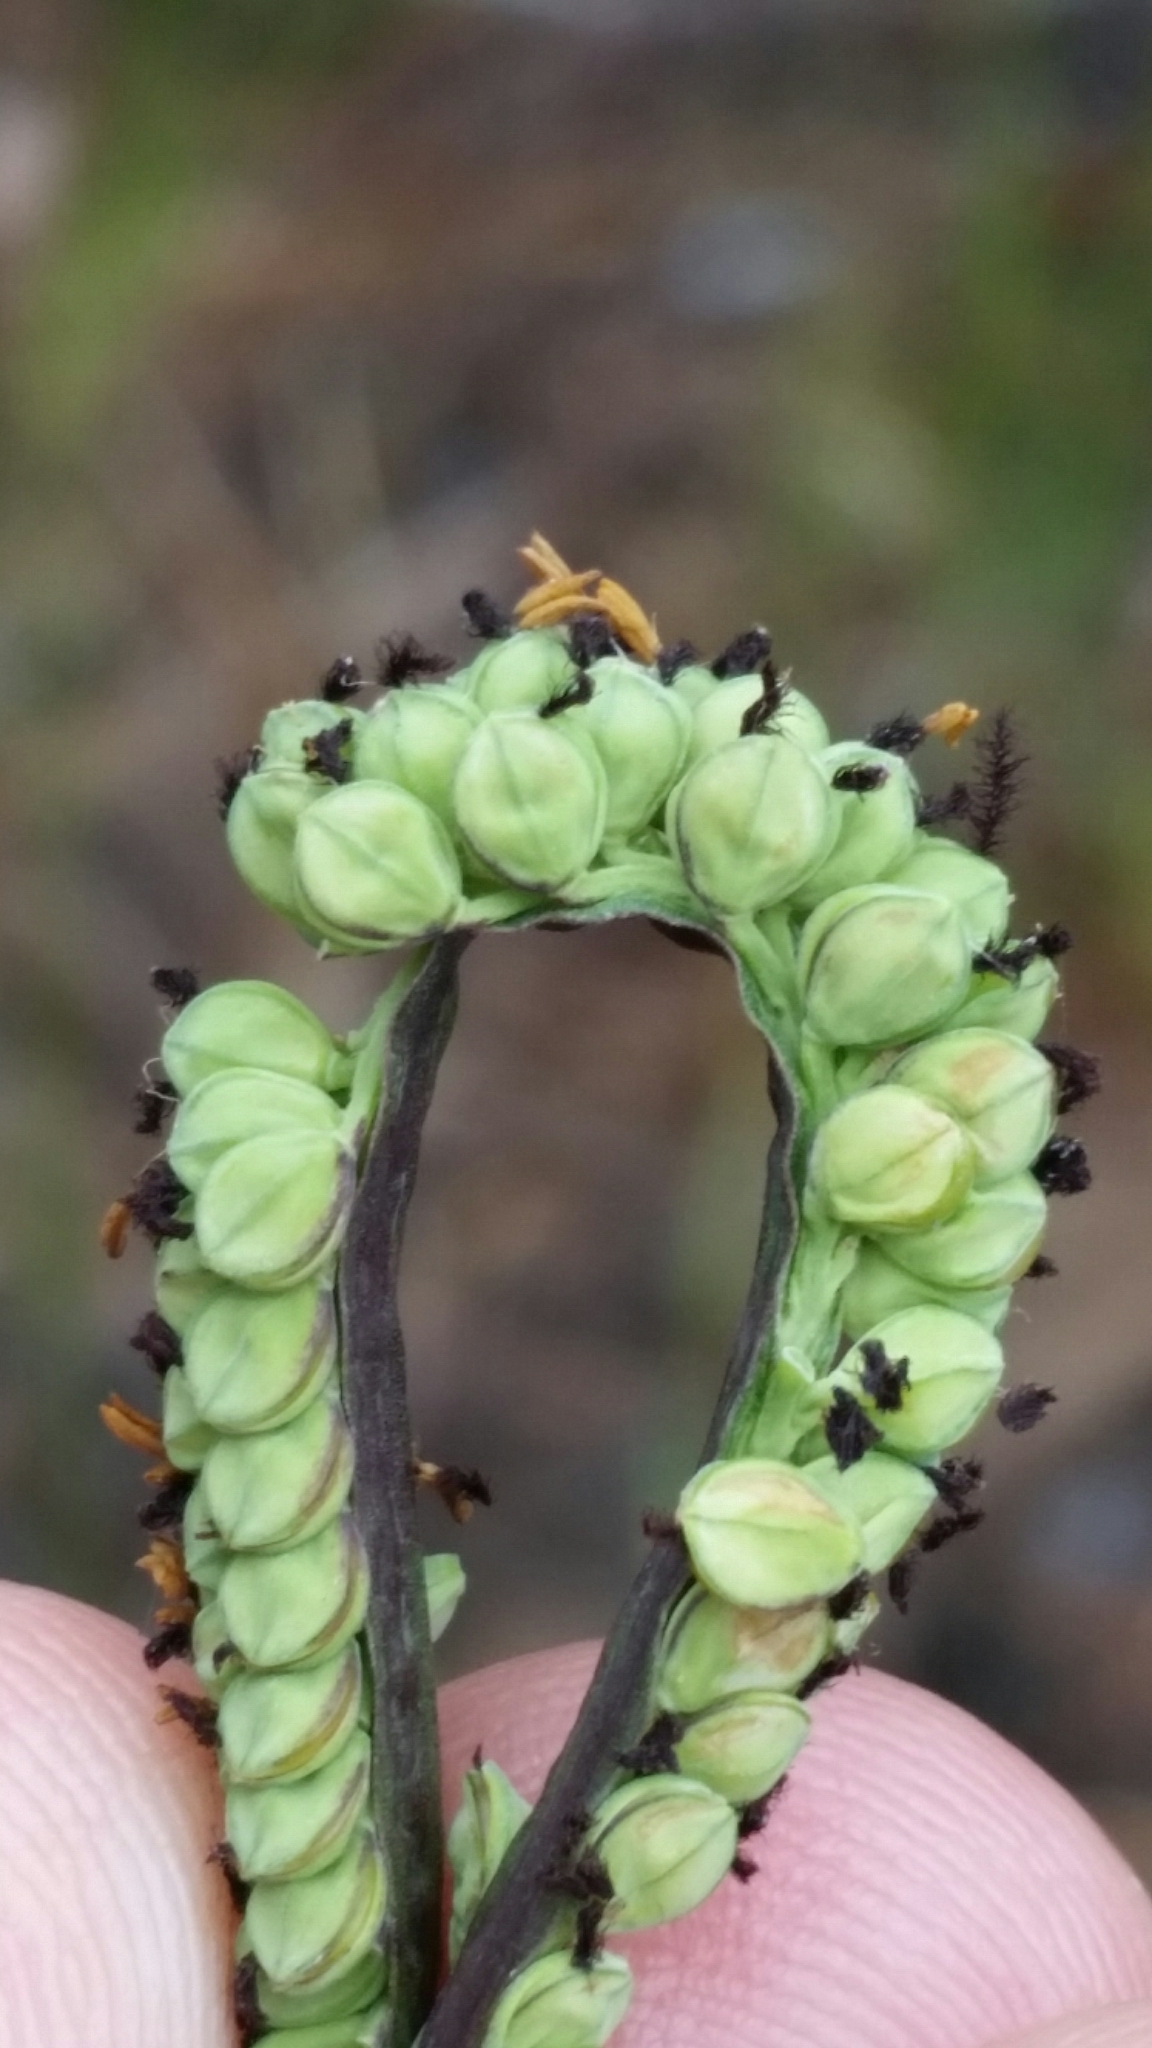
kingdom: Plantae
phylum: Tracheophyta
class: Liliopsida
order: Poales
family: Poaceae
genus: Paspalum
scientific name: Paspalum praecox
